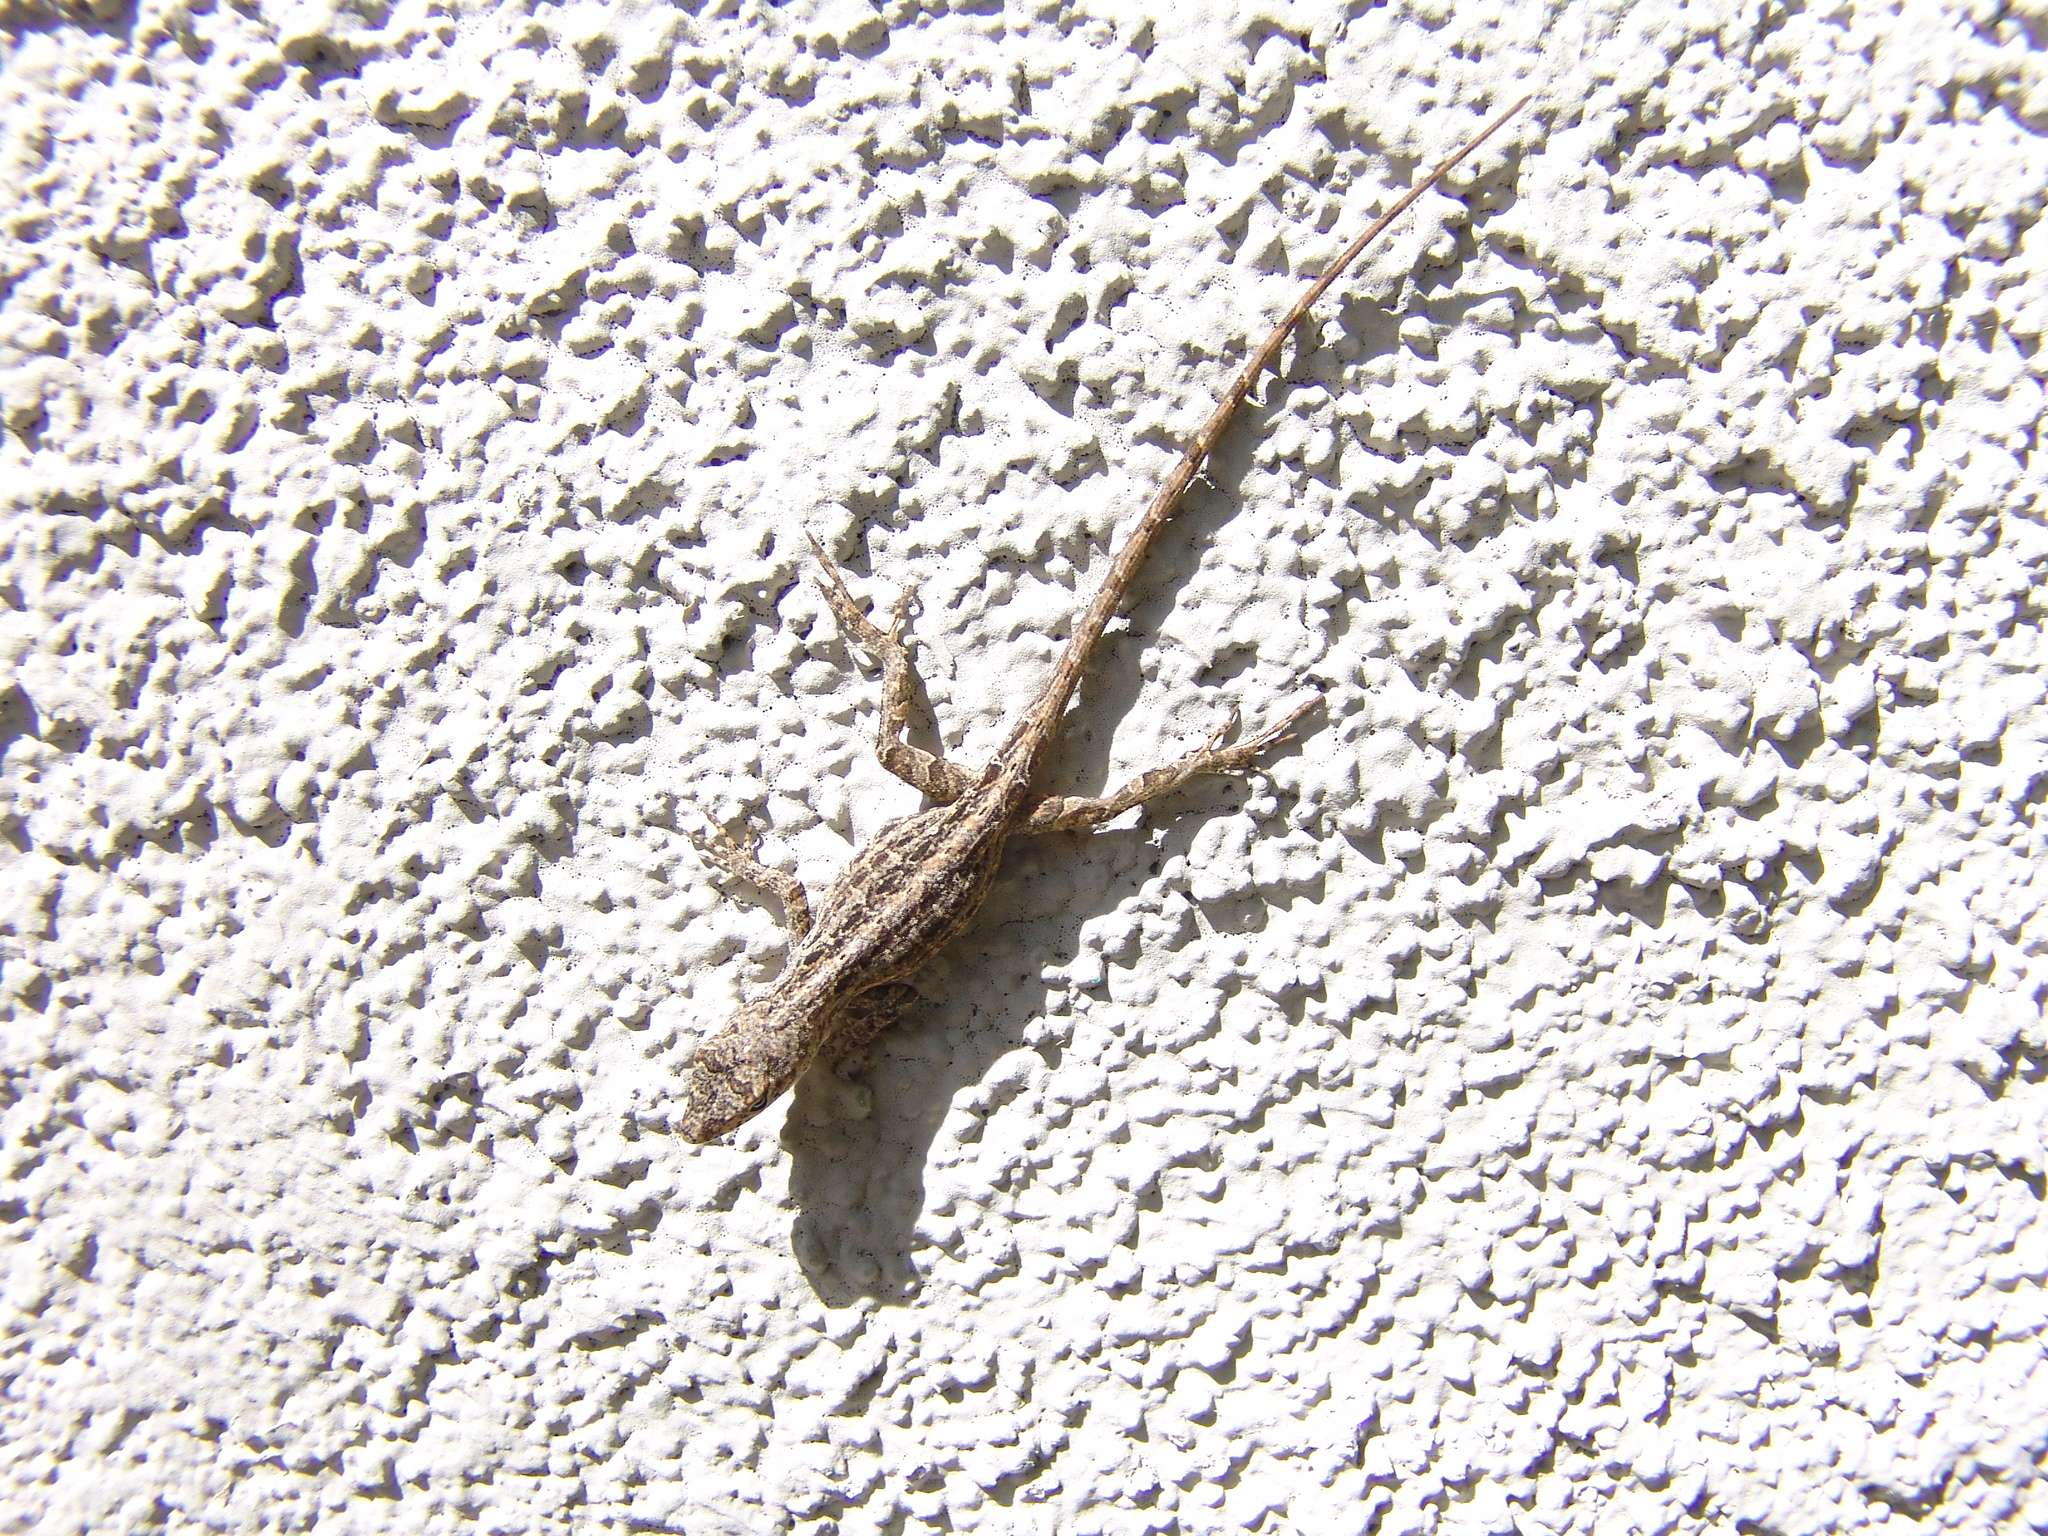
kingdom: Animalia
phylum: Chordata
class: Squamata
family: Dactyloidae
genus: Anolis
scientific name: Anolis sagrei
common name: Brown anole
